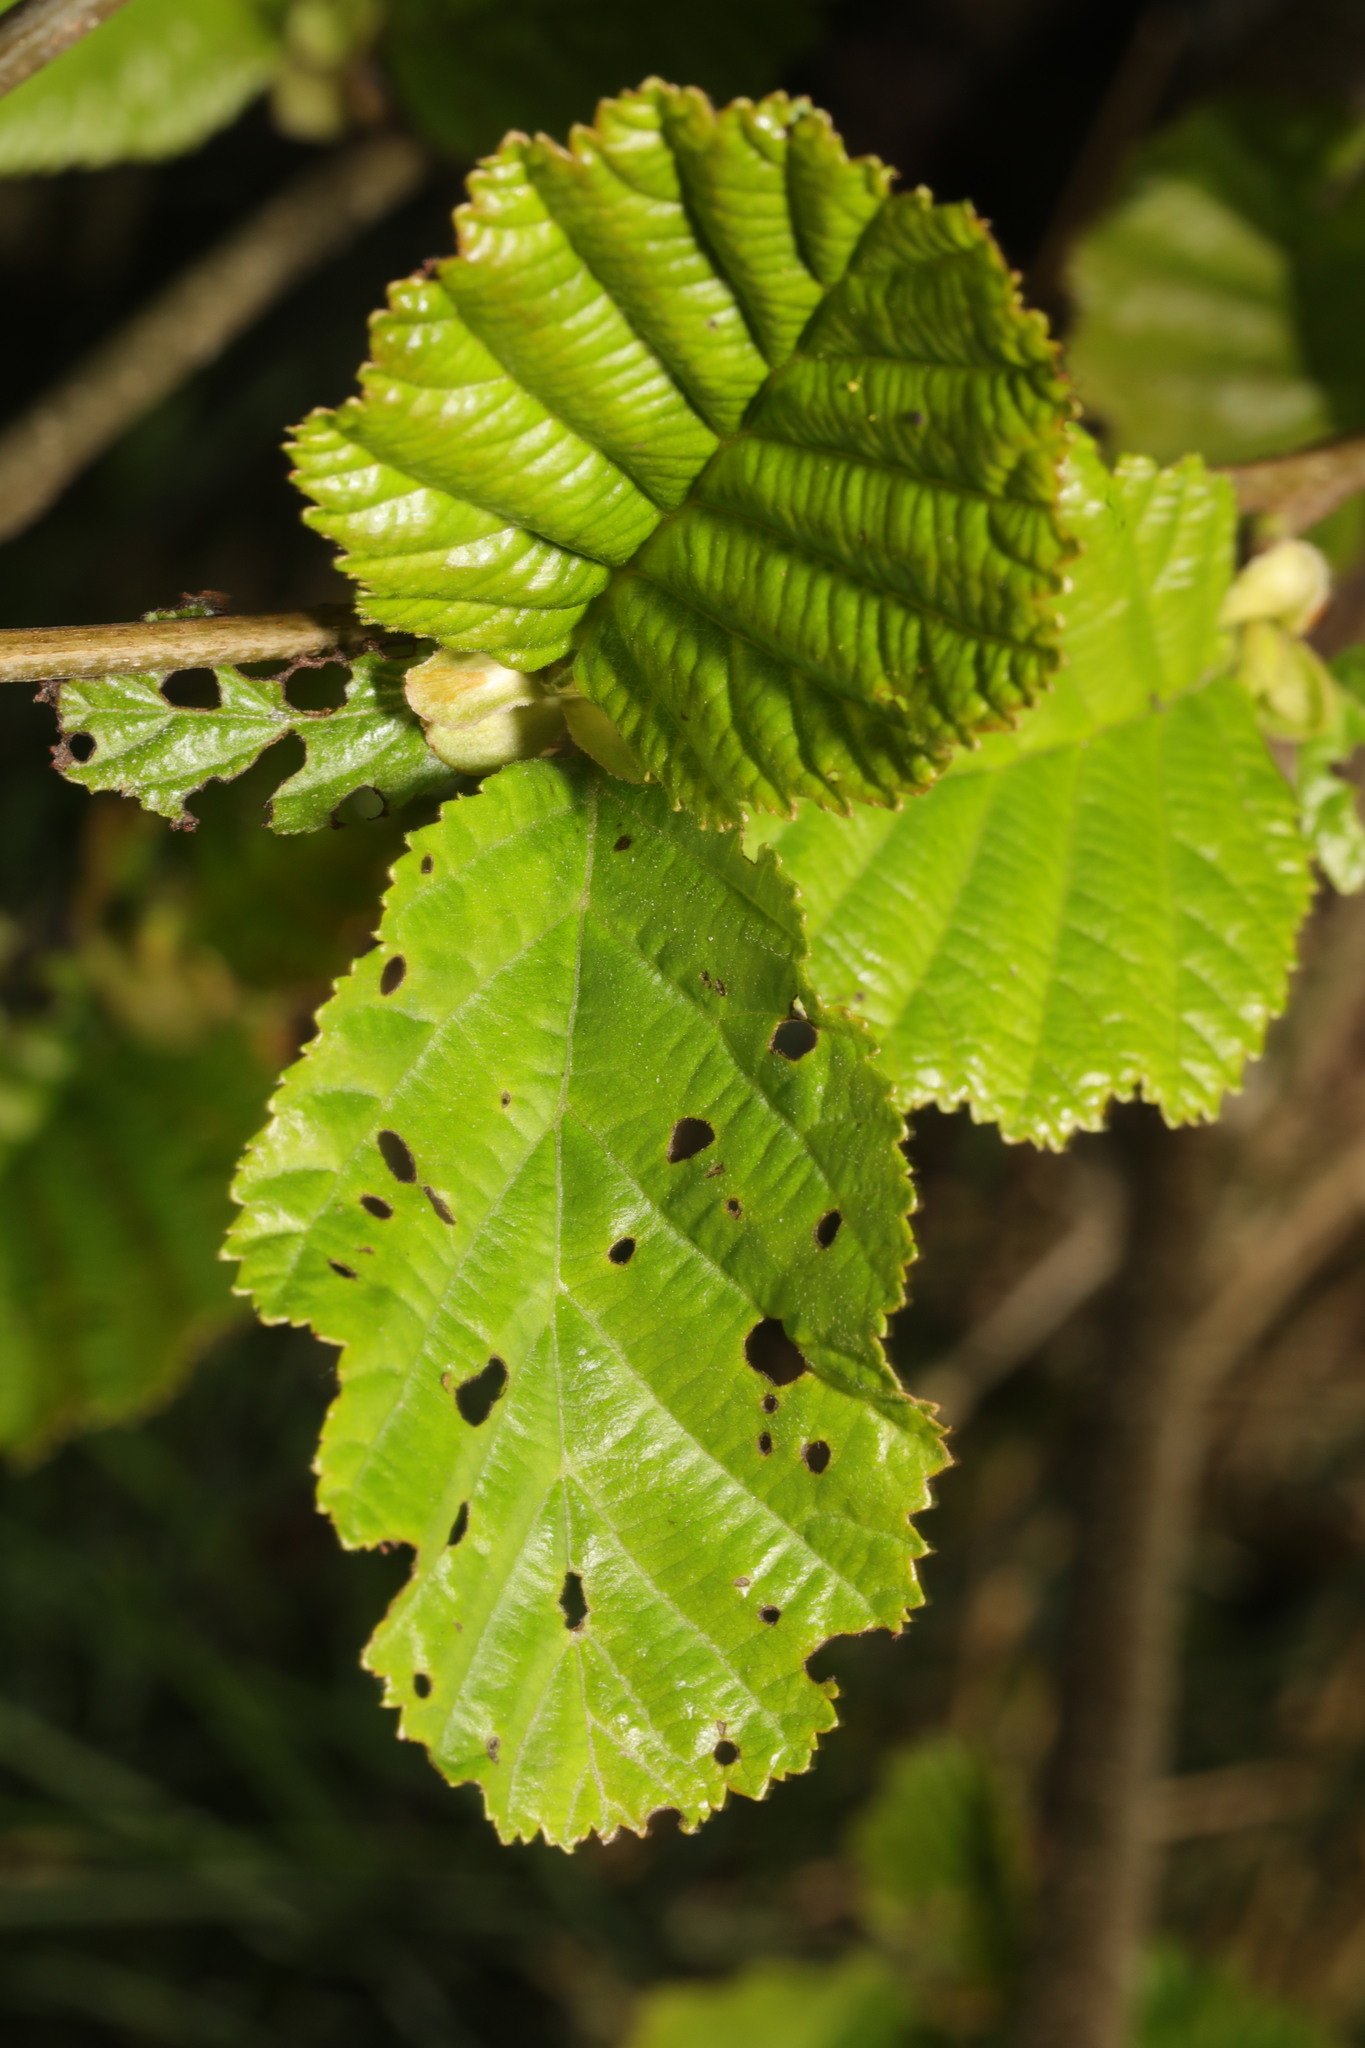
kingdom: Plantae
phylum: Tracheophyta
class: Magnoliopsida
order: Fagales
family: Betulaceae
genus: Alnus
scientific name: Alnus glutinosa
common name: Black alder
